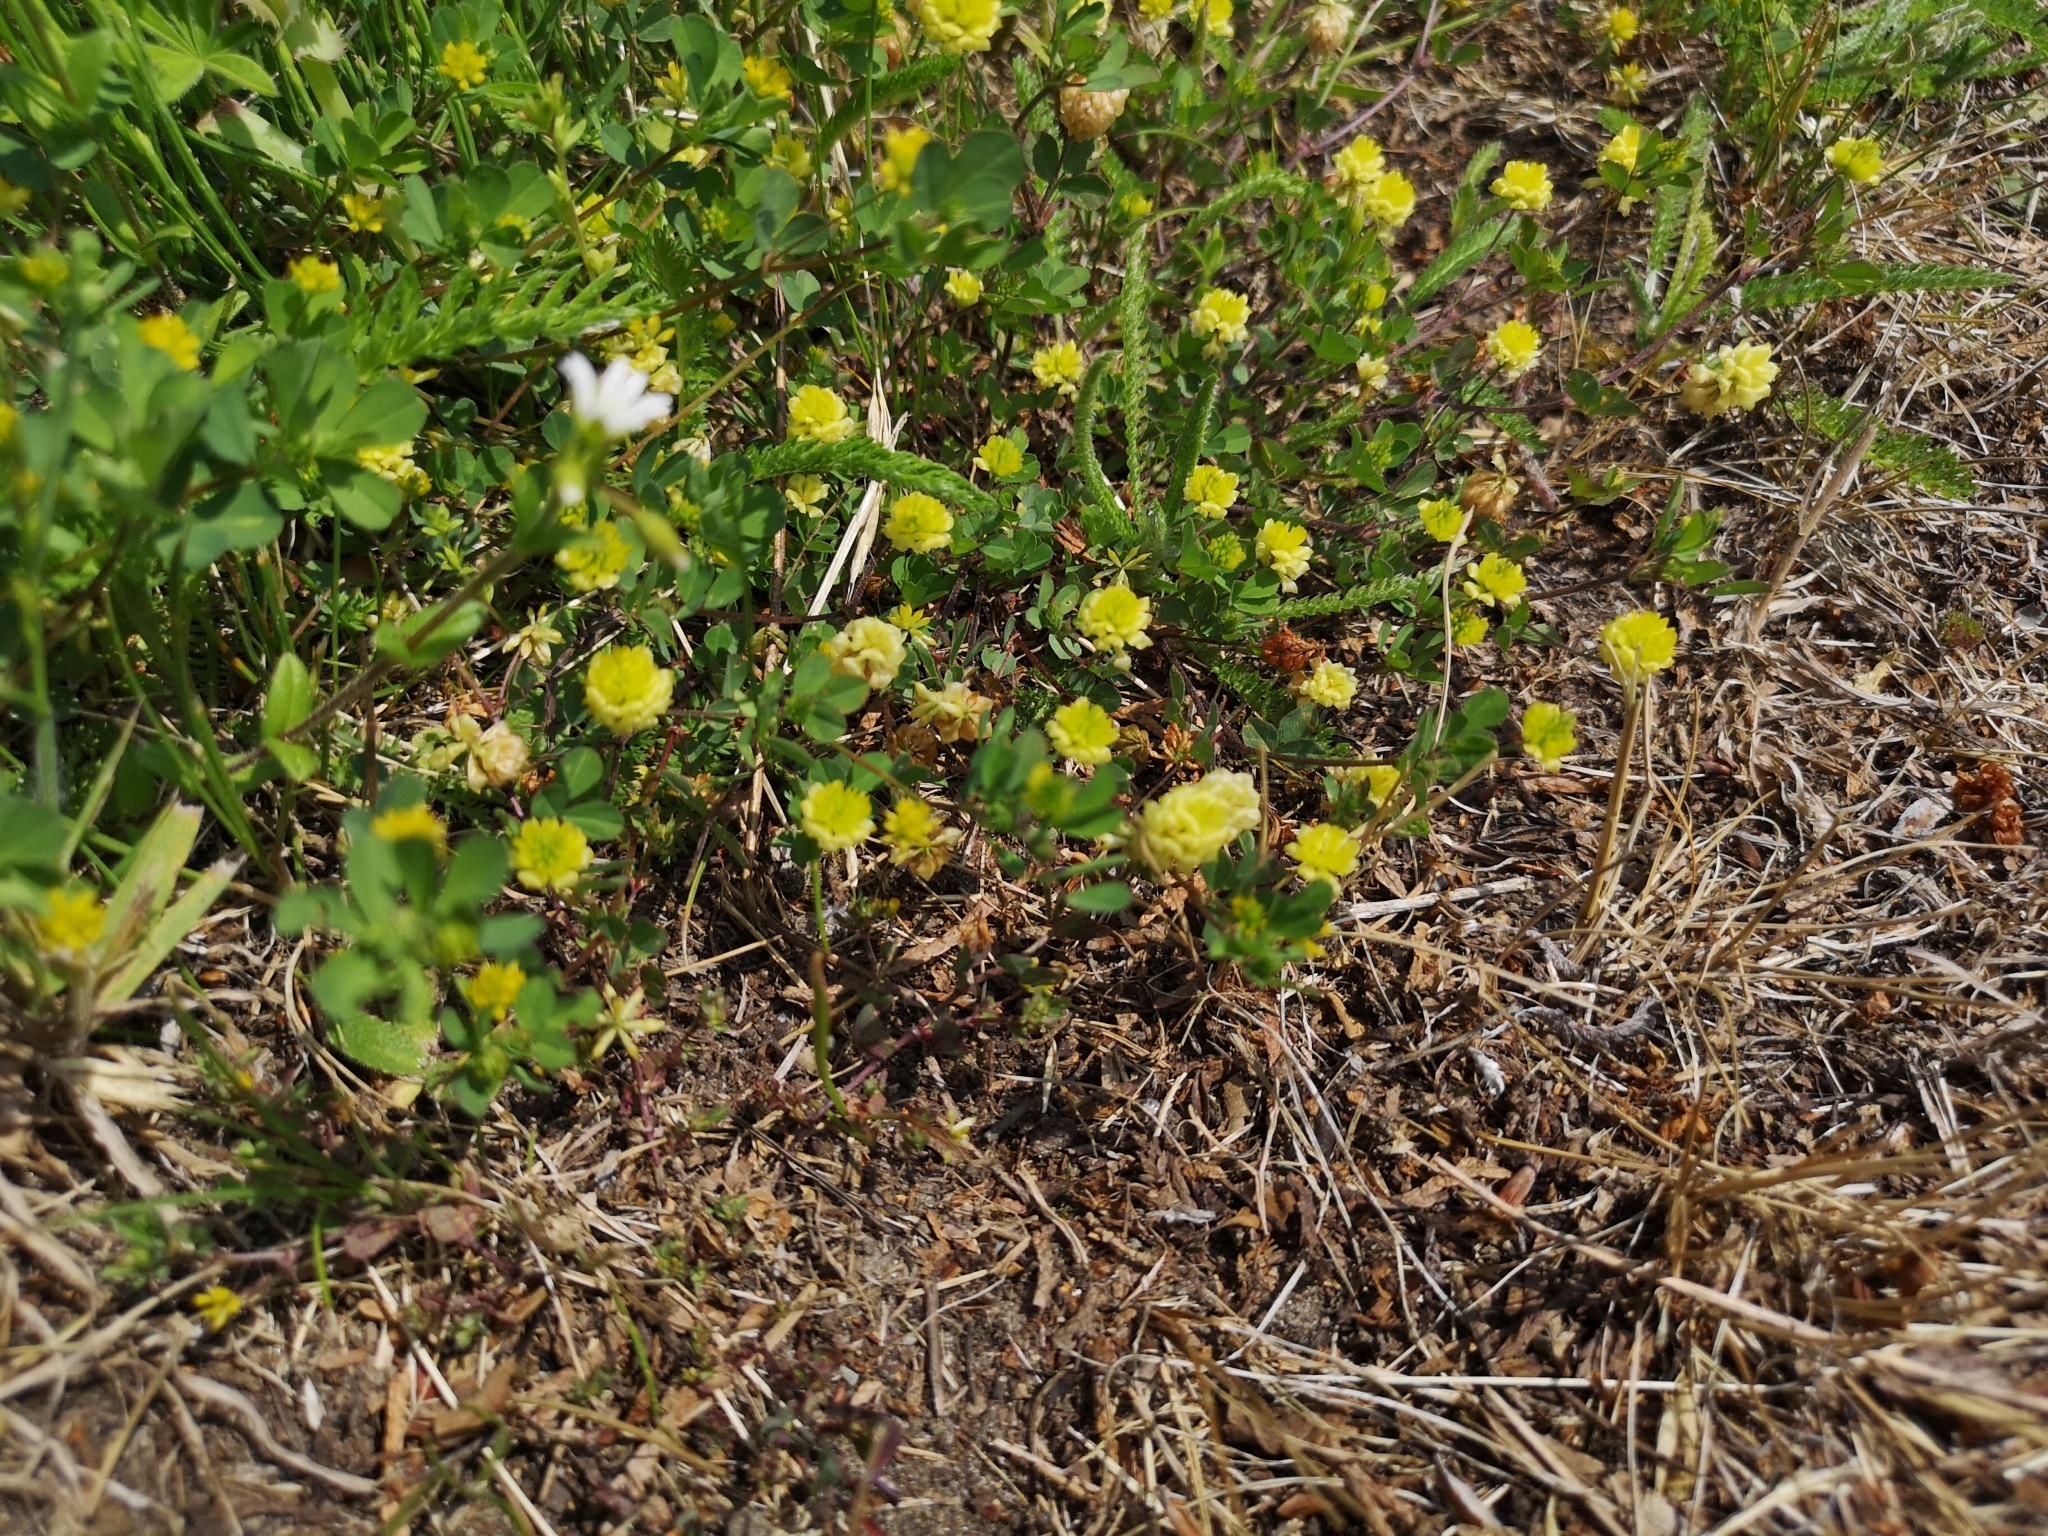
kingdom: Plantae
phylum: Tracheophyta
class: Magnoliopsida
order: Fabales
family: Fabaceae
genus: Trifolium
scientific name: Trifolium campestre
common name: Field clover
